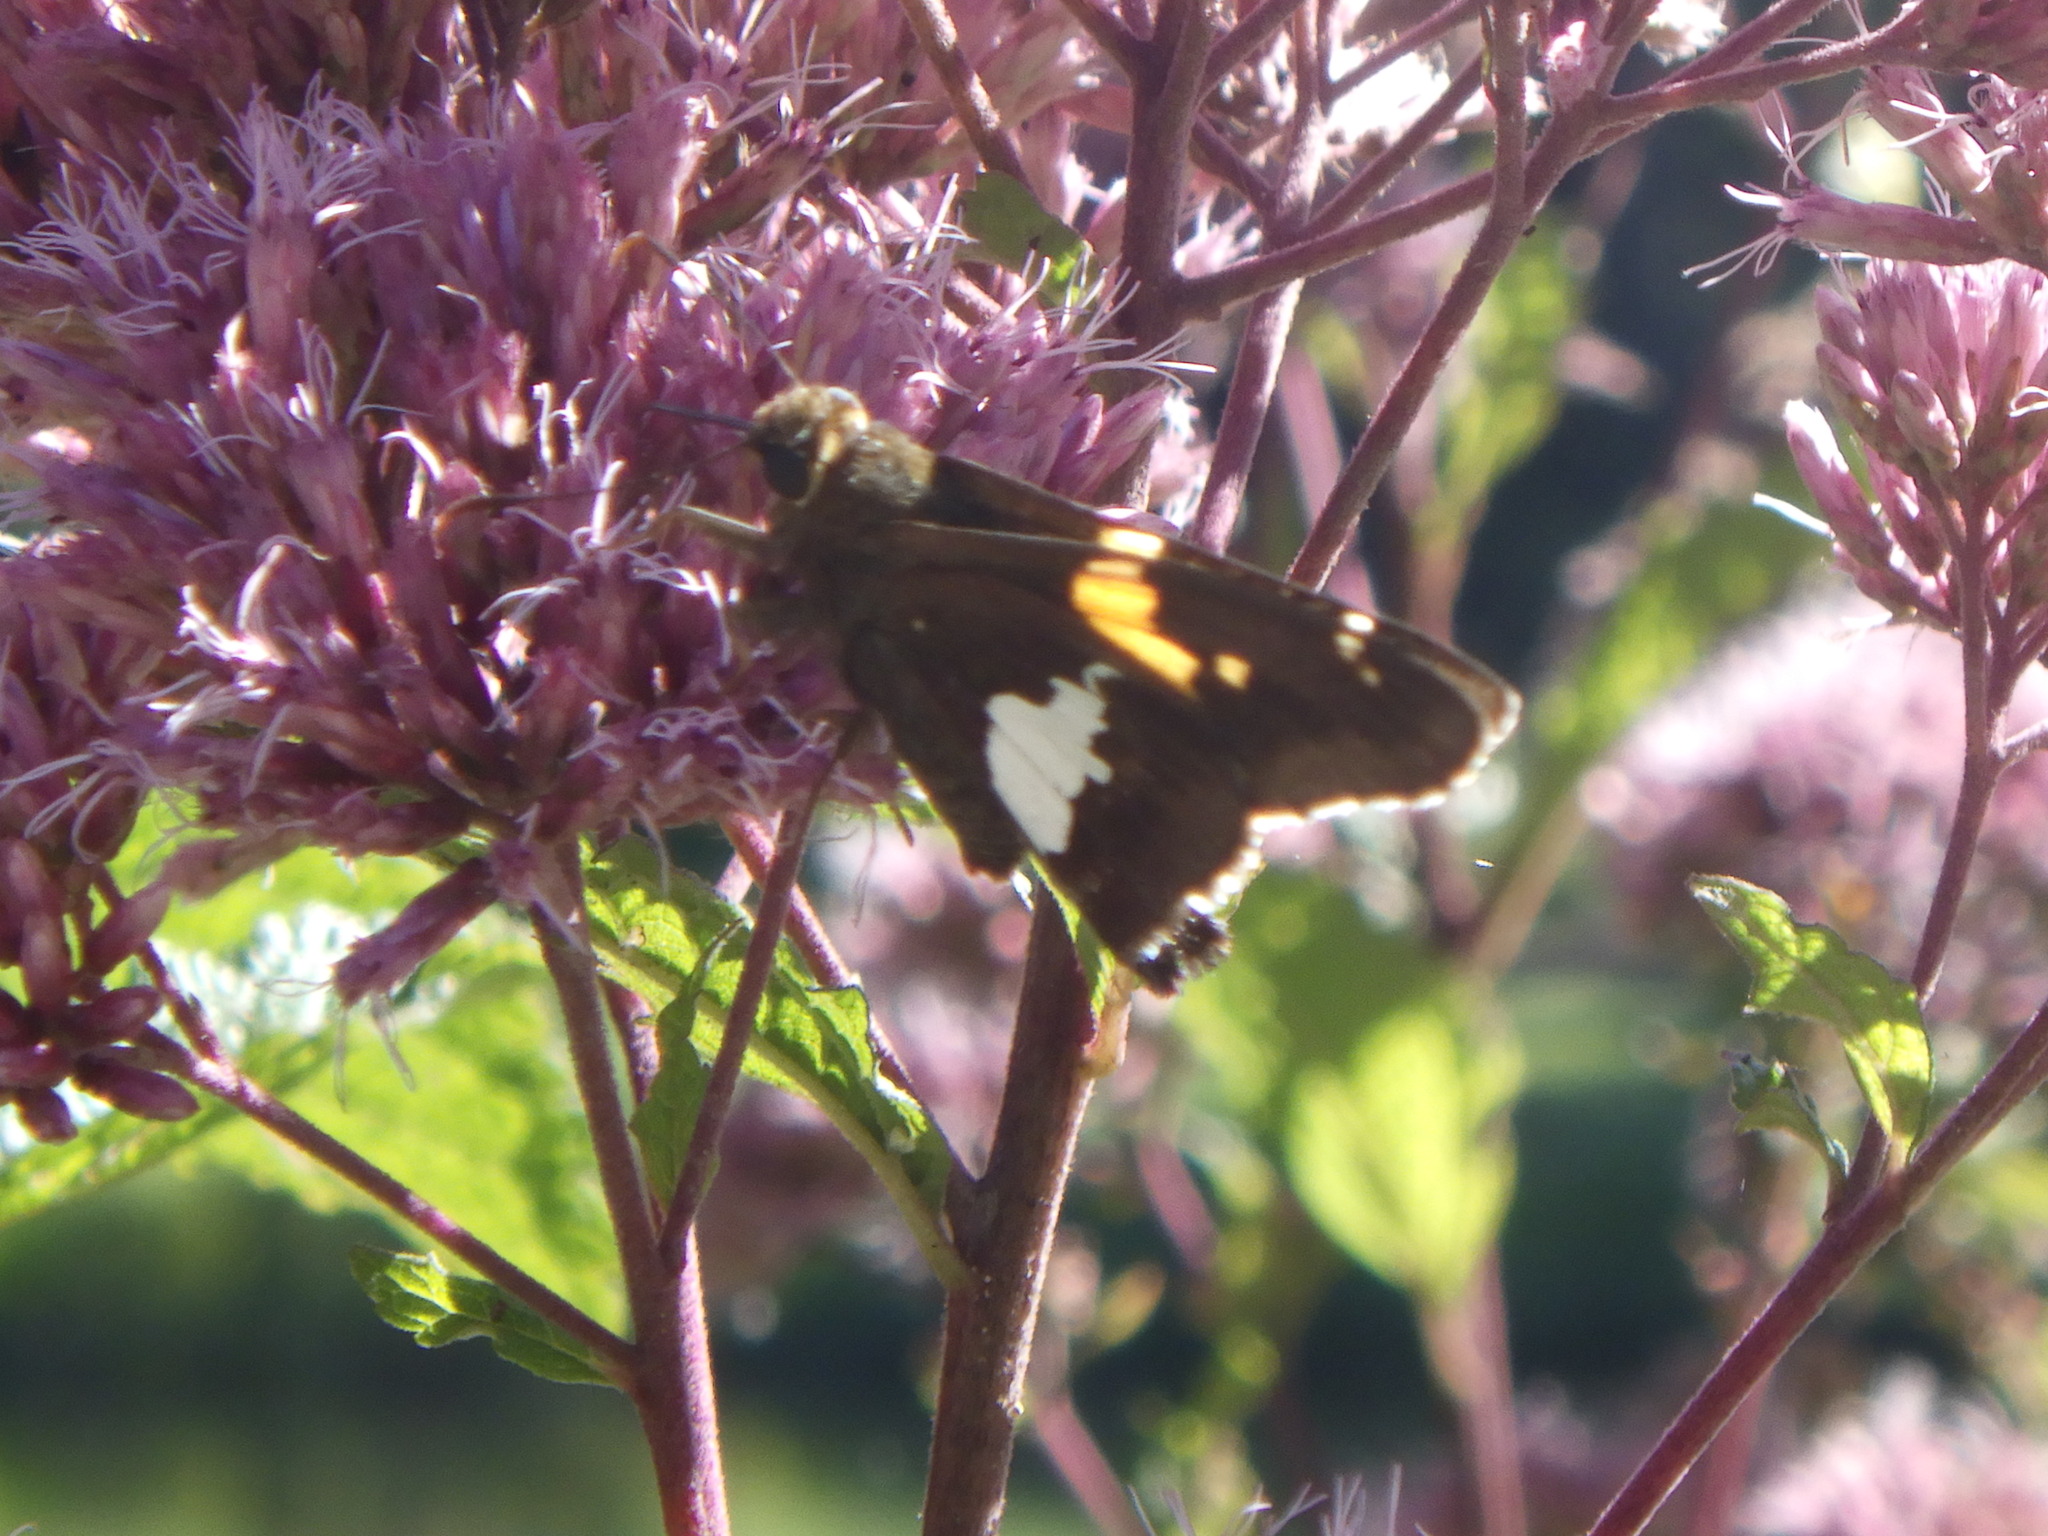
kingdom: Animalia
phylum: Arthropoda
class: Insecta
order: Lepidoptera
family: Hesperiidae
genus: Epargyreus
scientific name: Epargyreus clarus
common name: Silver-spotted skipper
